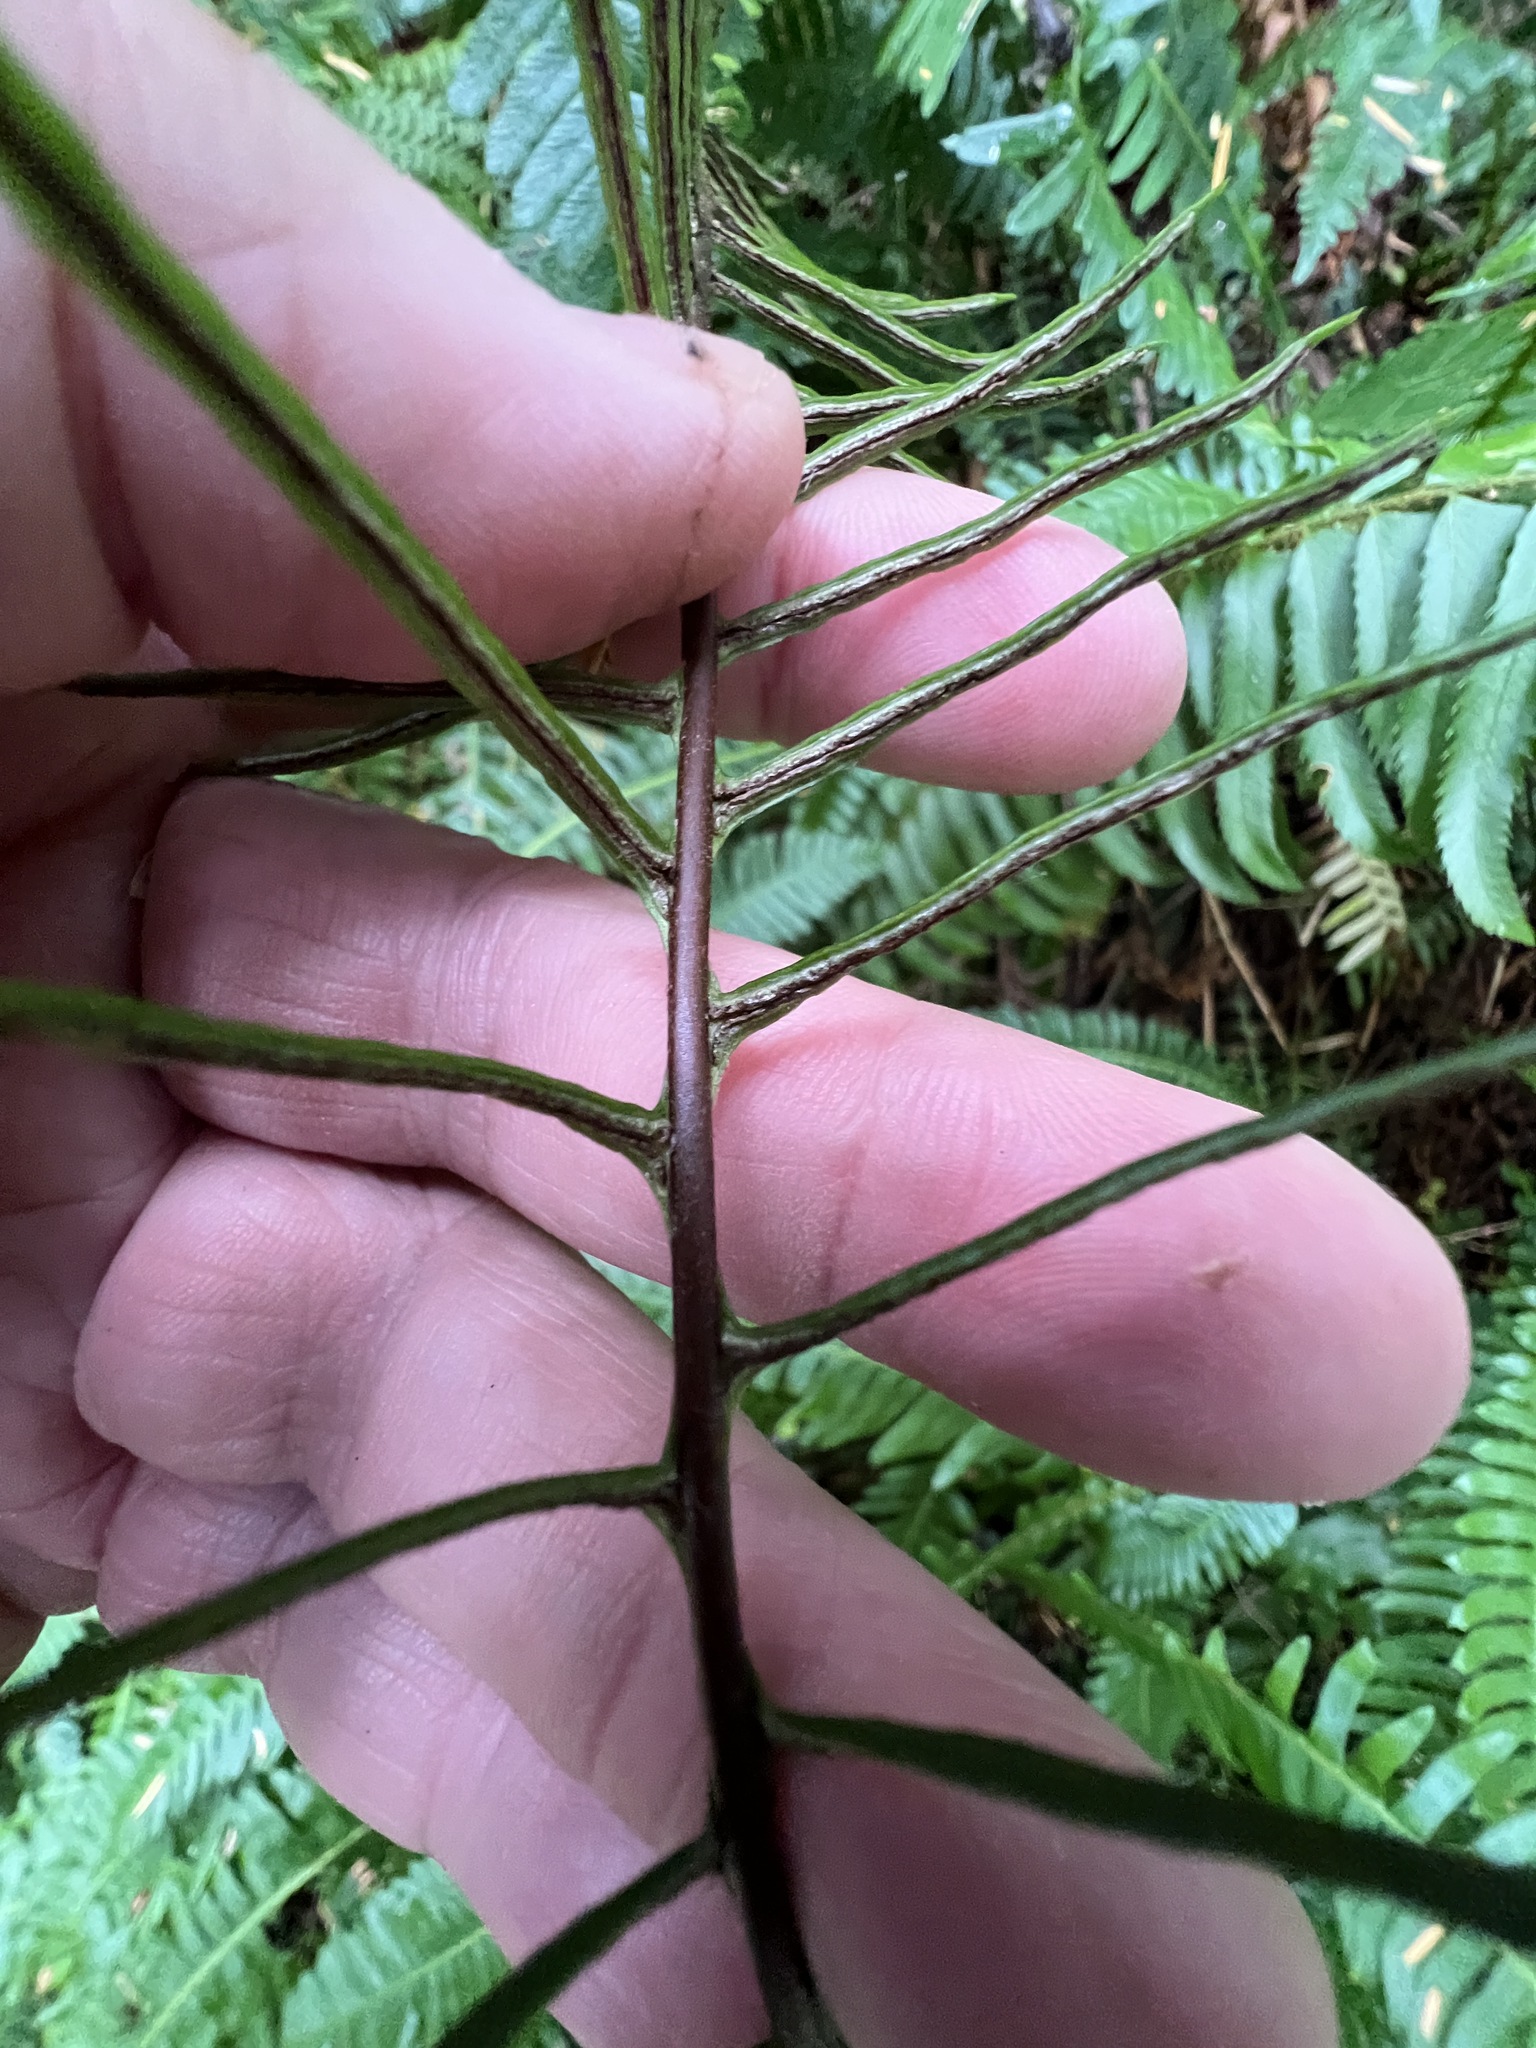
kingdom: Plantae
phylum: Tracheophyta
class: Polypodiopsida
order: Polypodiales
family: Blechnaceae
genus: Struthiopteris
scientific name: Struthiopteris spicant
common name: Deer fern
